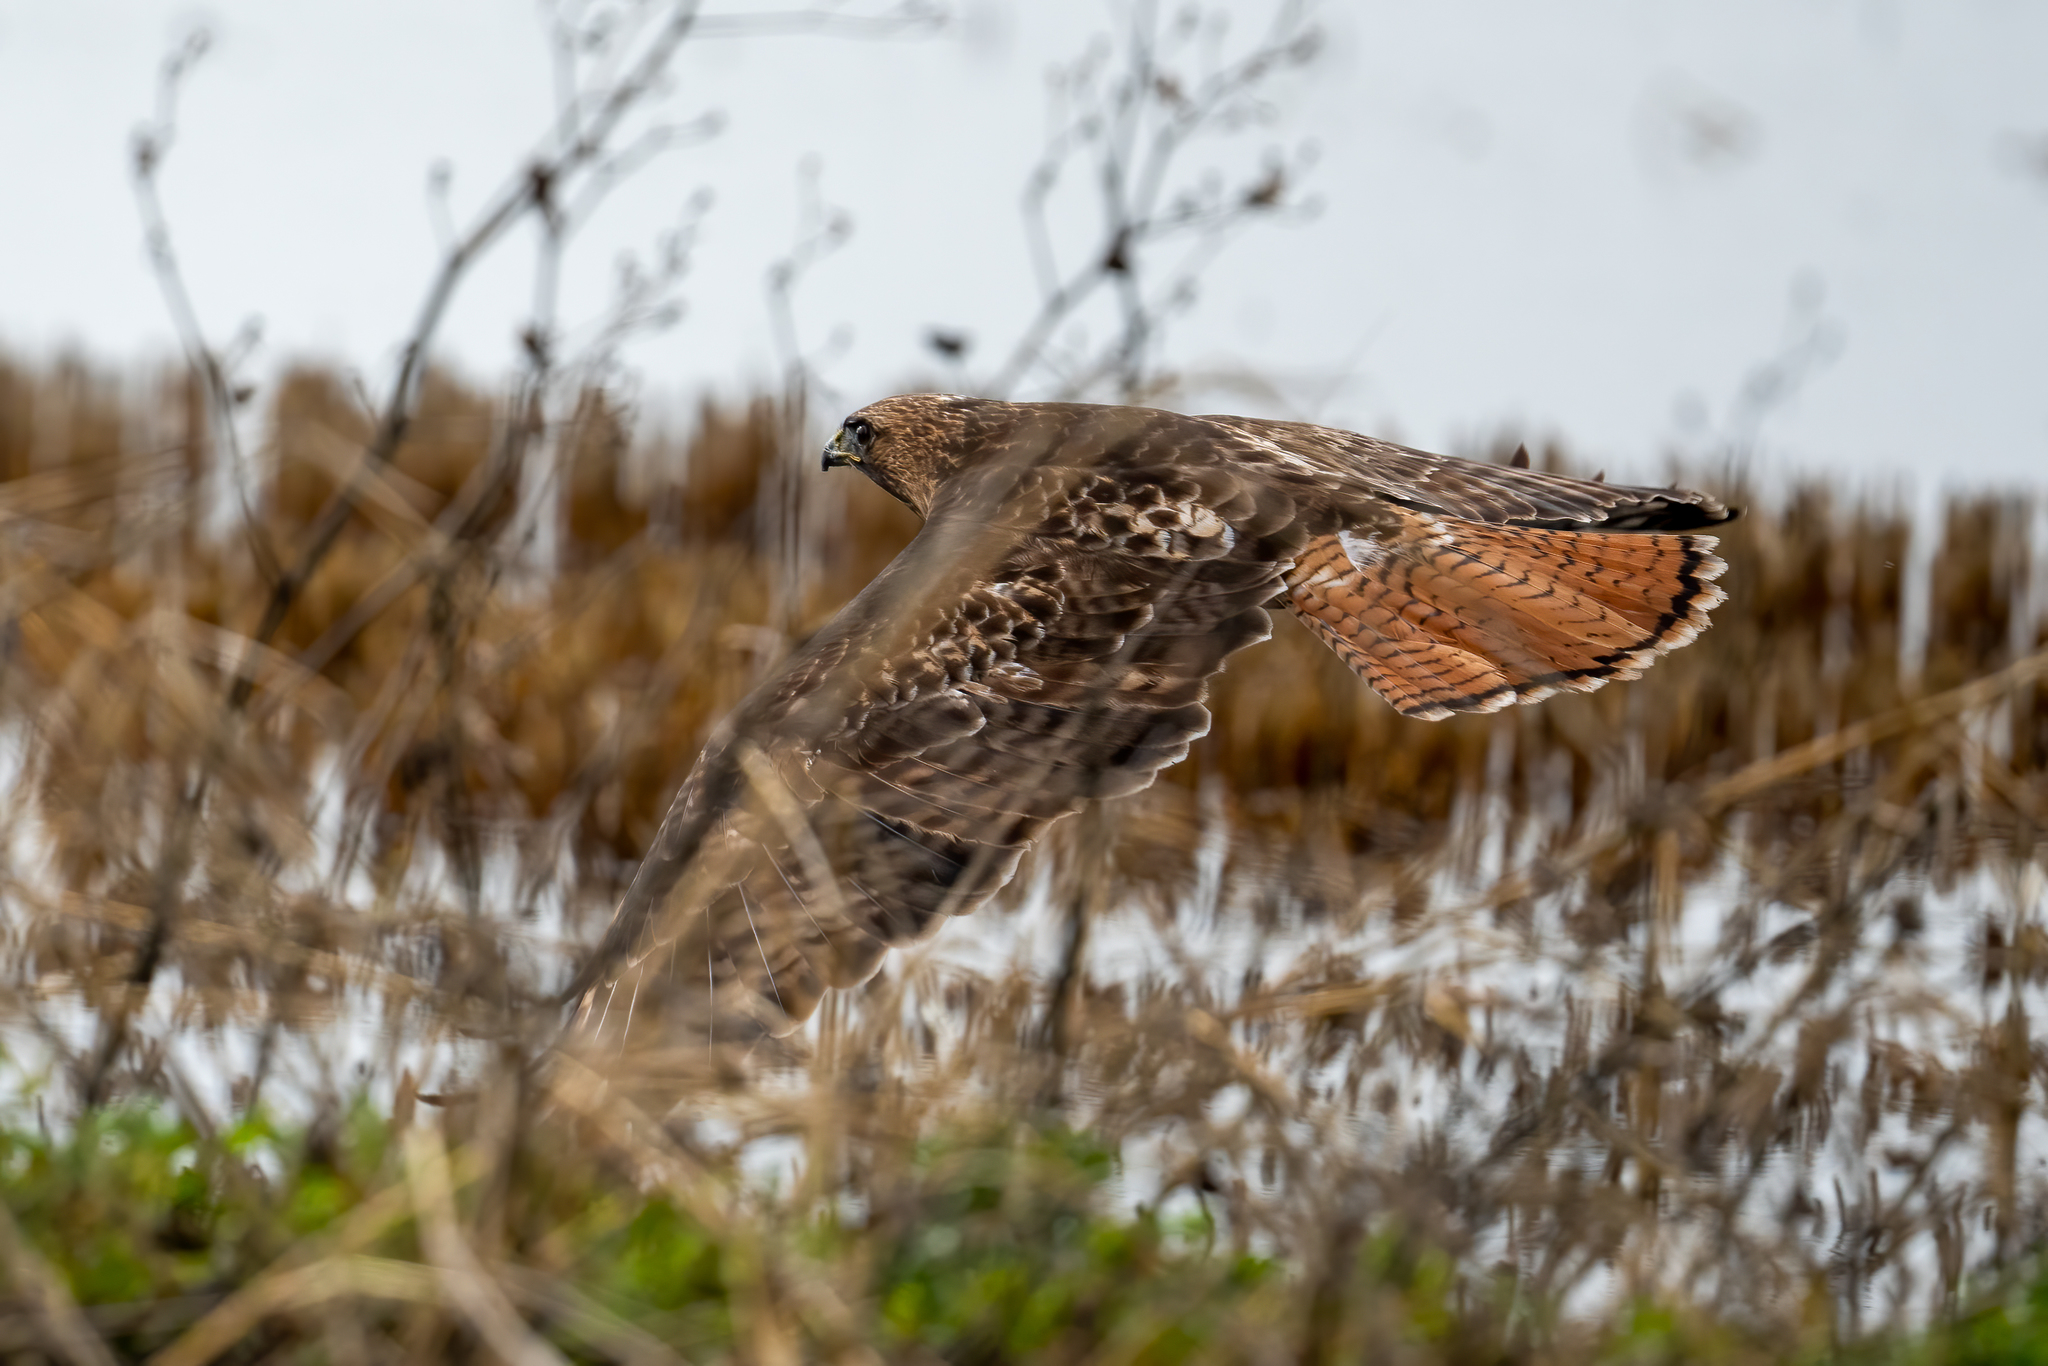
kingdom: Animalia
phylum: Chordata
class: Aves
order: Accipitriformes
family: Accipitridae
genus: Buteo
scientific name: Buteo jamaicensis
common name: Red-tailed hawk
